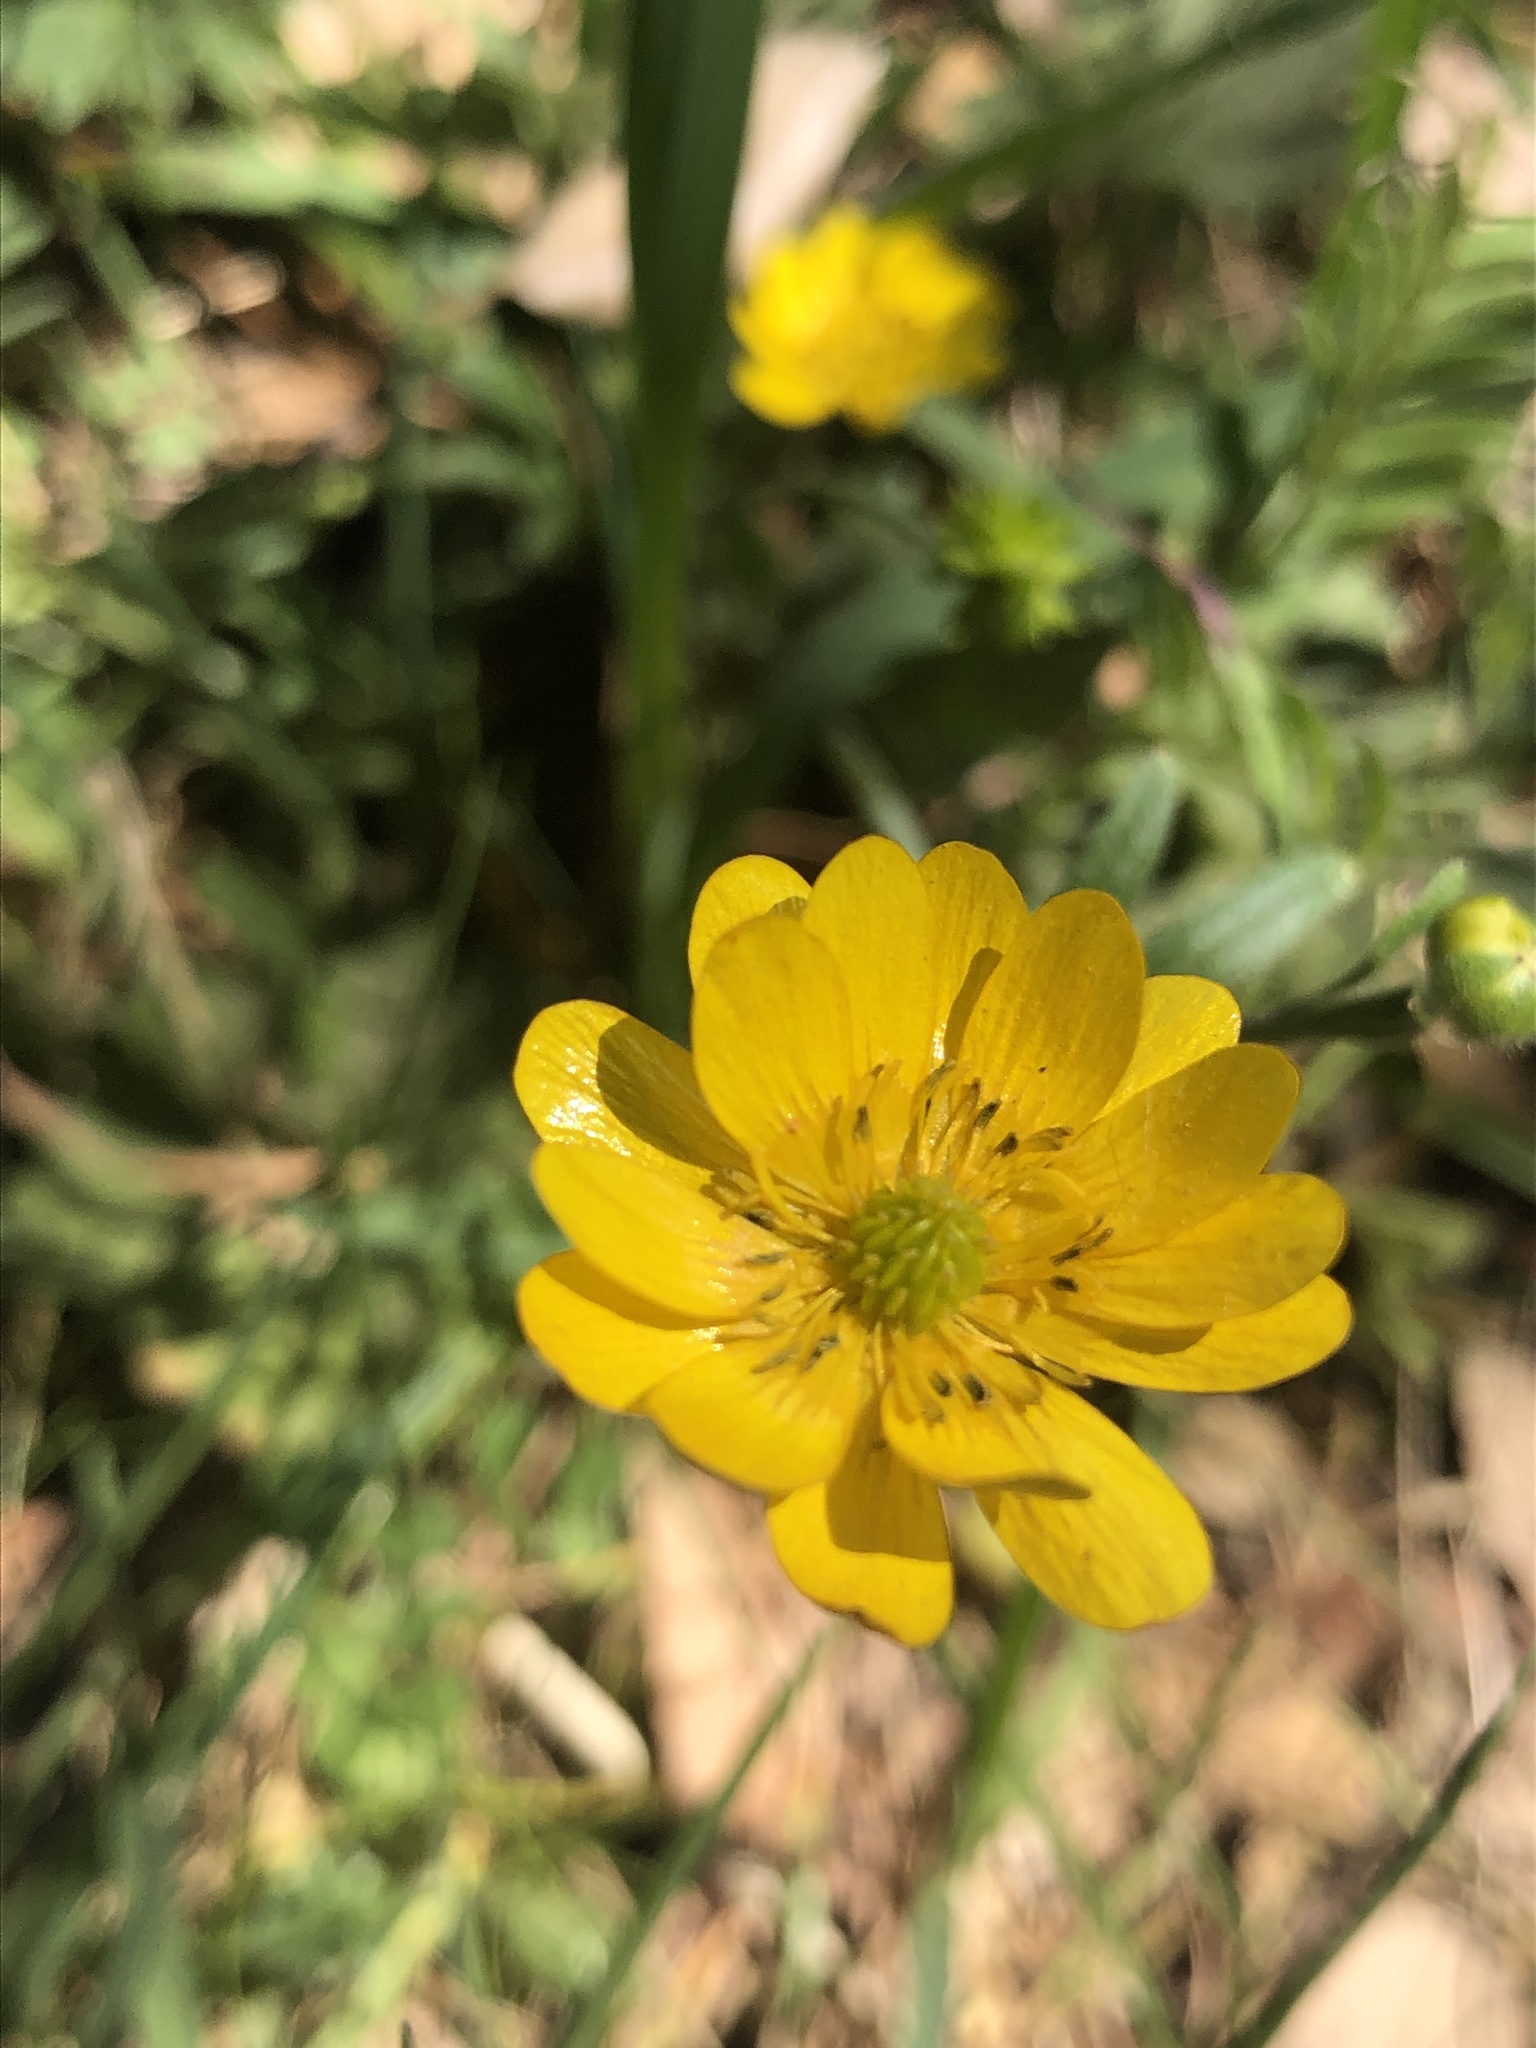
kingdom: Plantae
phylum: Tracheophyta
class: Magnoliopsida
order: Ranunculales
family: Ranunculaceae
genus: Ranunculus
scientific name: Ranunculus californicus
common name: California buttercup
